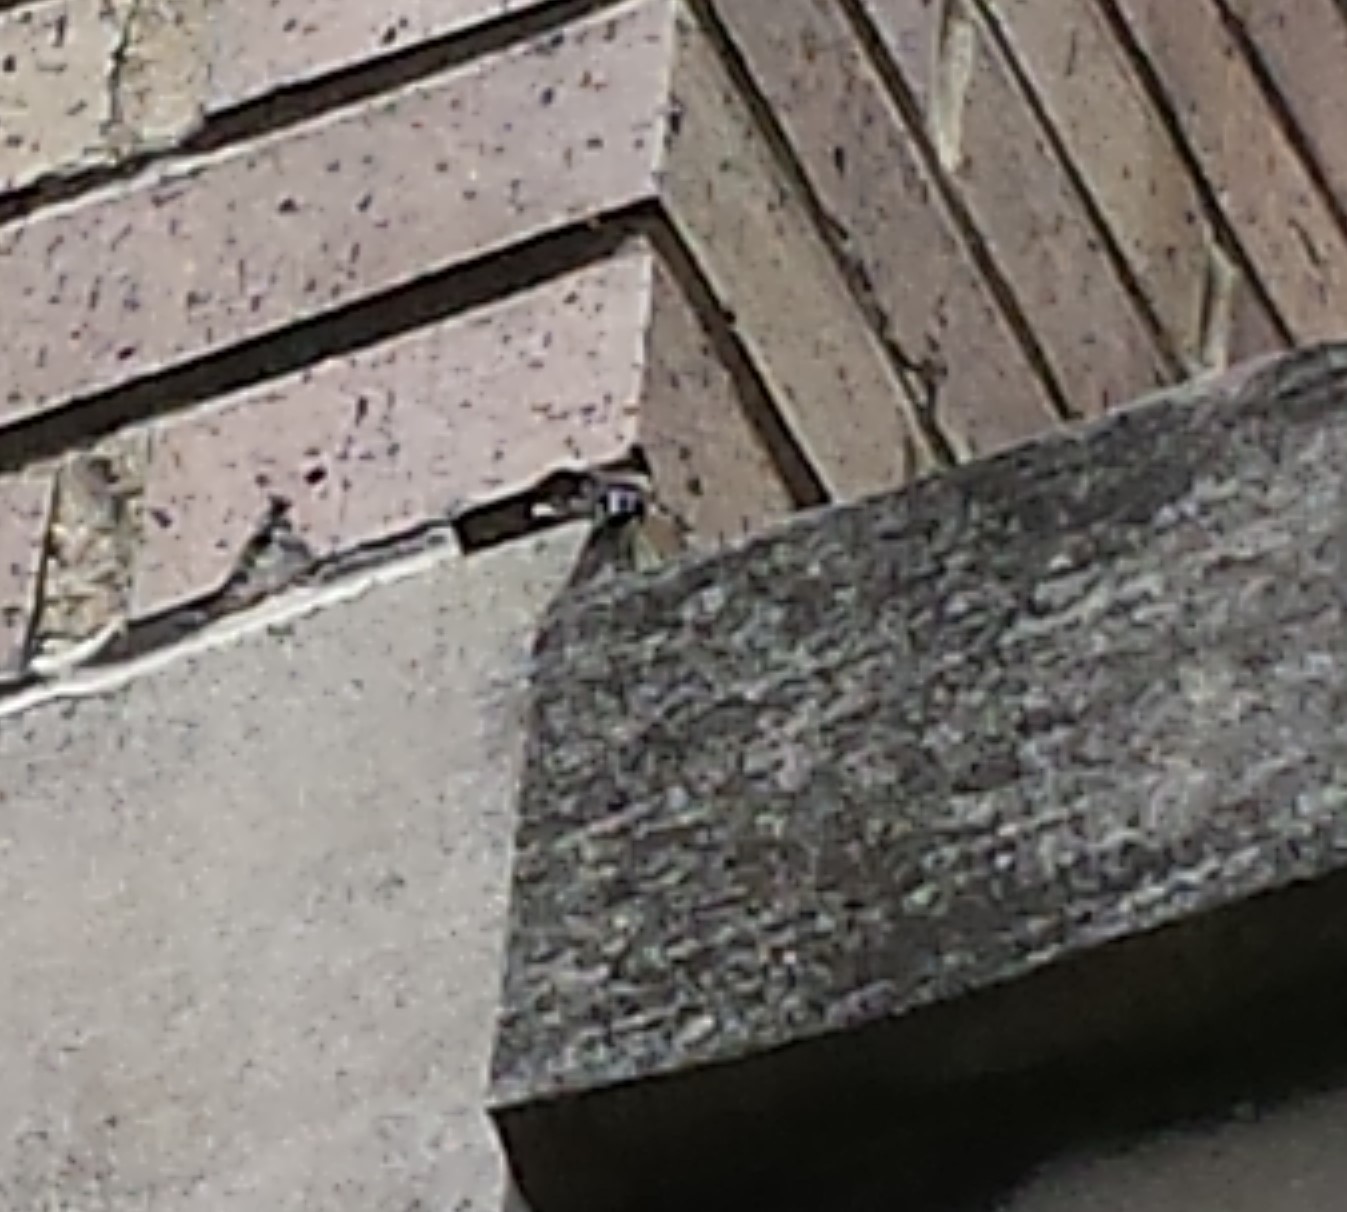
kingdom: Animalia
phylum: Arthropoda
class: Insecta
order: Diptera
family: Bombyliidae
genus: Xenox
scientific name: Xenox tigrinus
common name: Tiger bee fly
